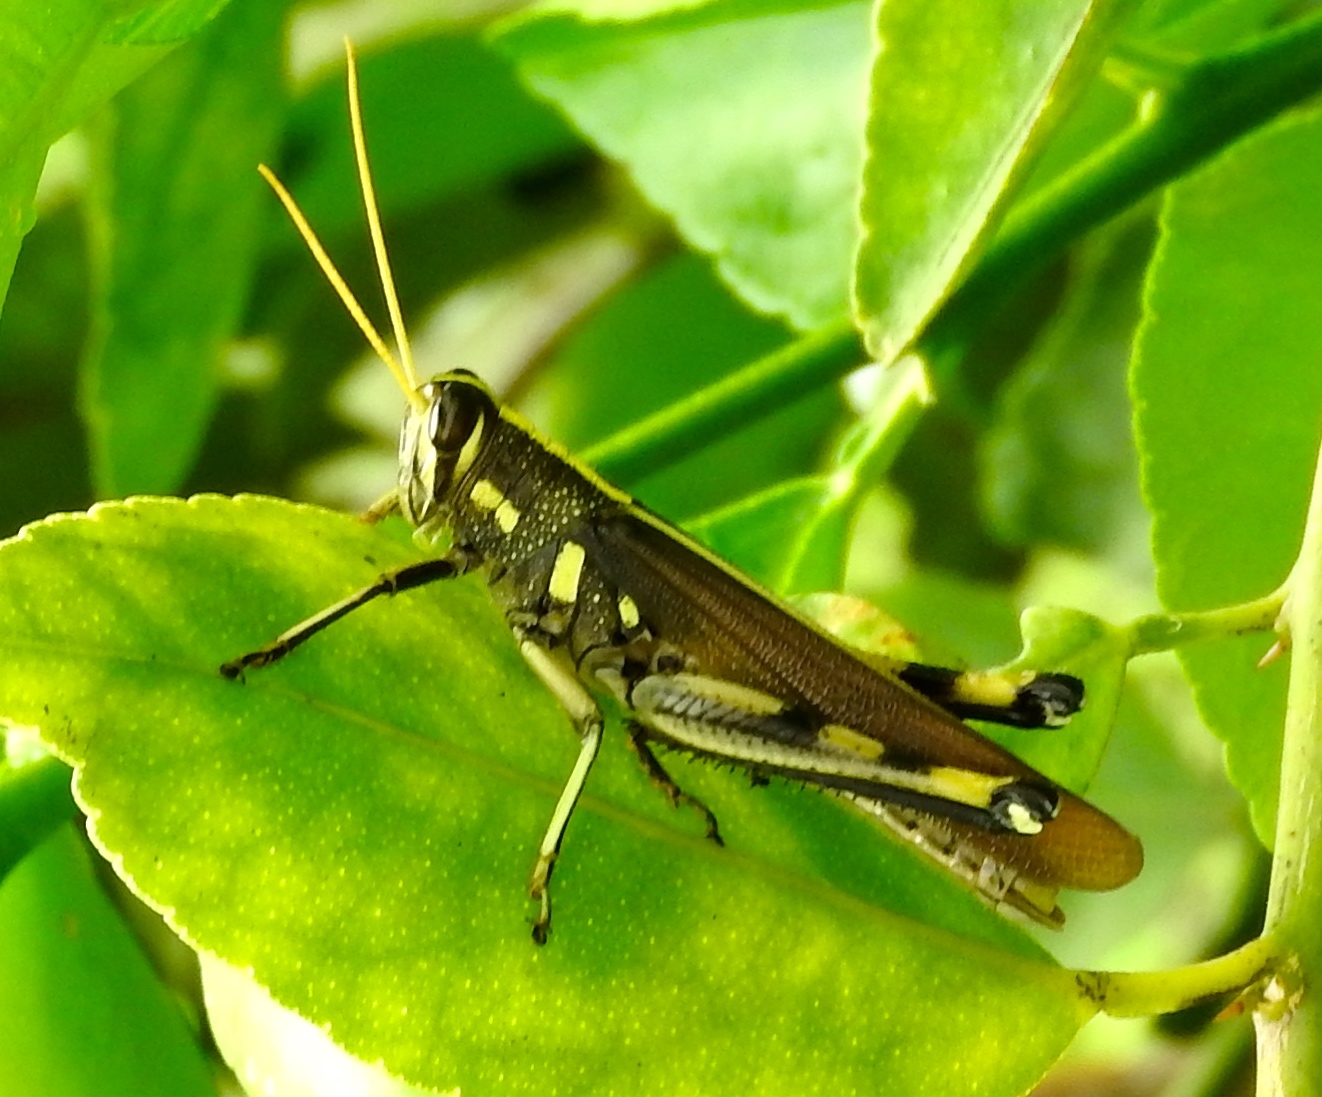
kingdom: Animalia
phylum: Arthropoda
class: Insecta
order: Orthoptera
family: Acrididae
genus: Schistocerca
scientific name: Schistocerca albolineata
